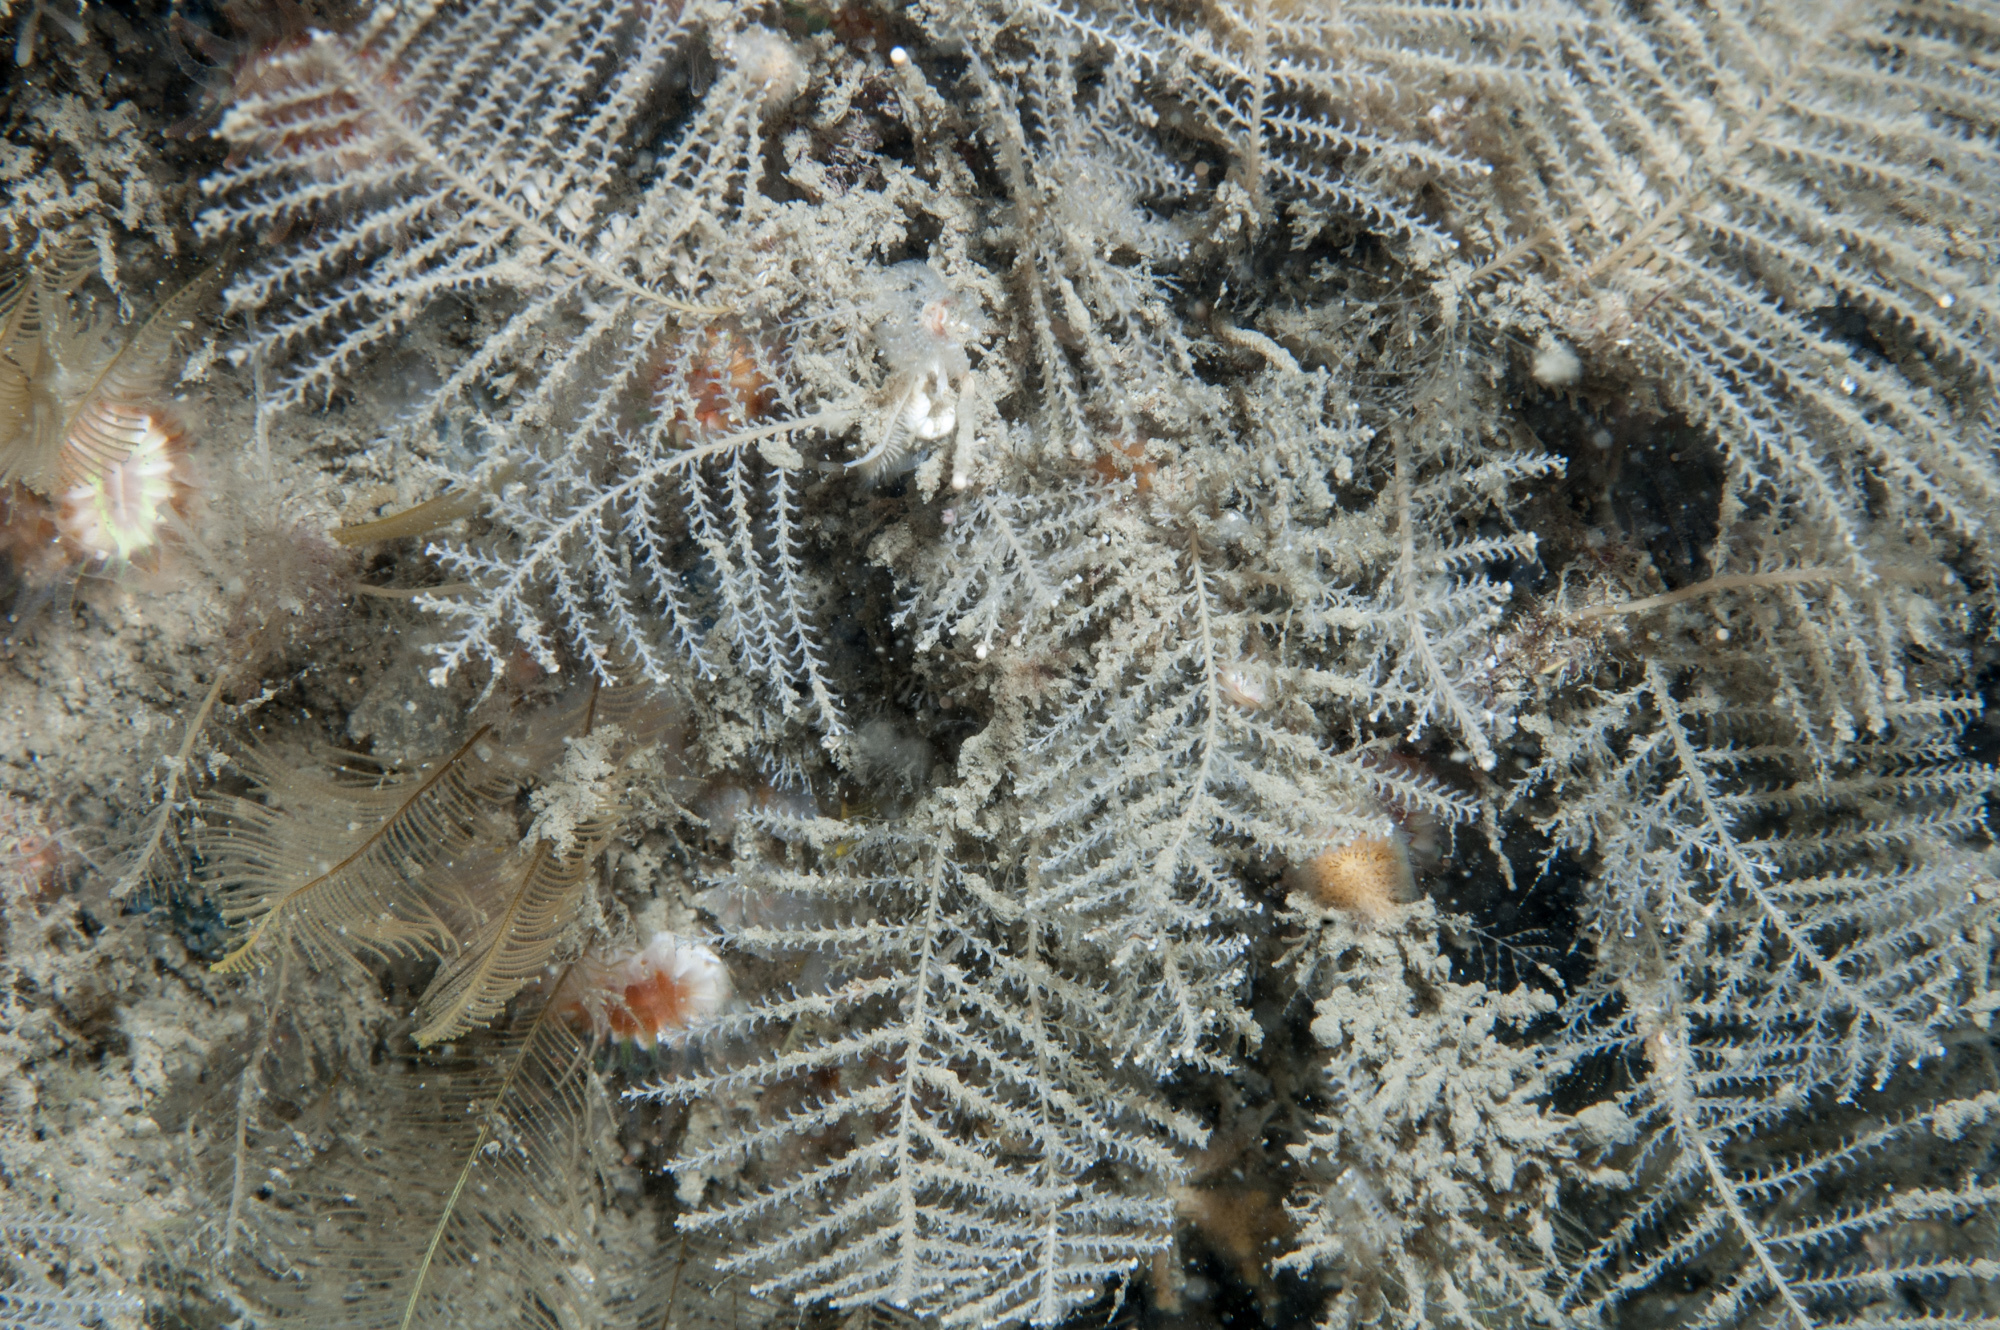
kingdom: Animalia
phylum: Cnidaria
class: Hydrozoa
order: Leptothecata
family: Sertulariidae
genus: Diphasia
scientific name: Diphasia margareta
